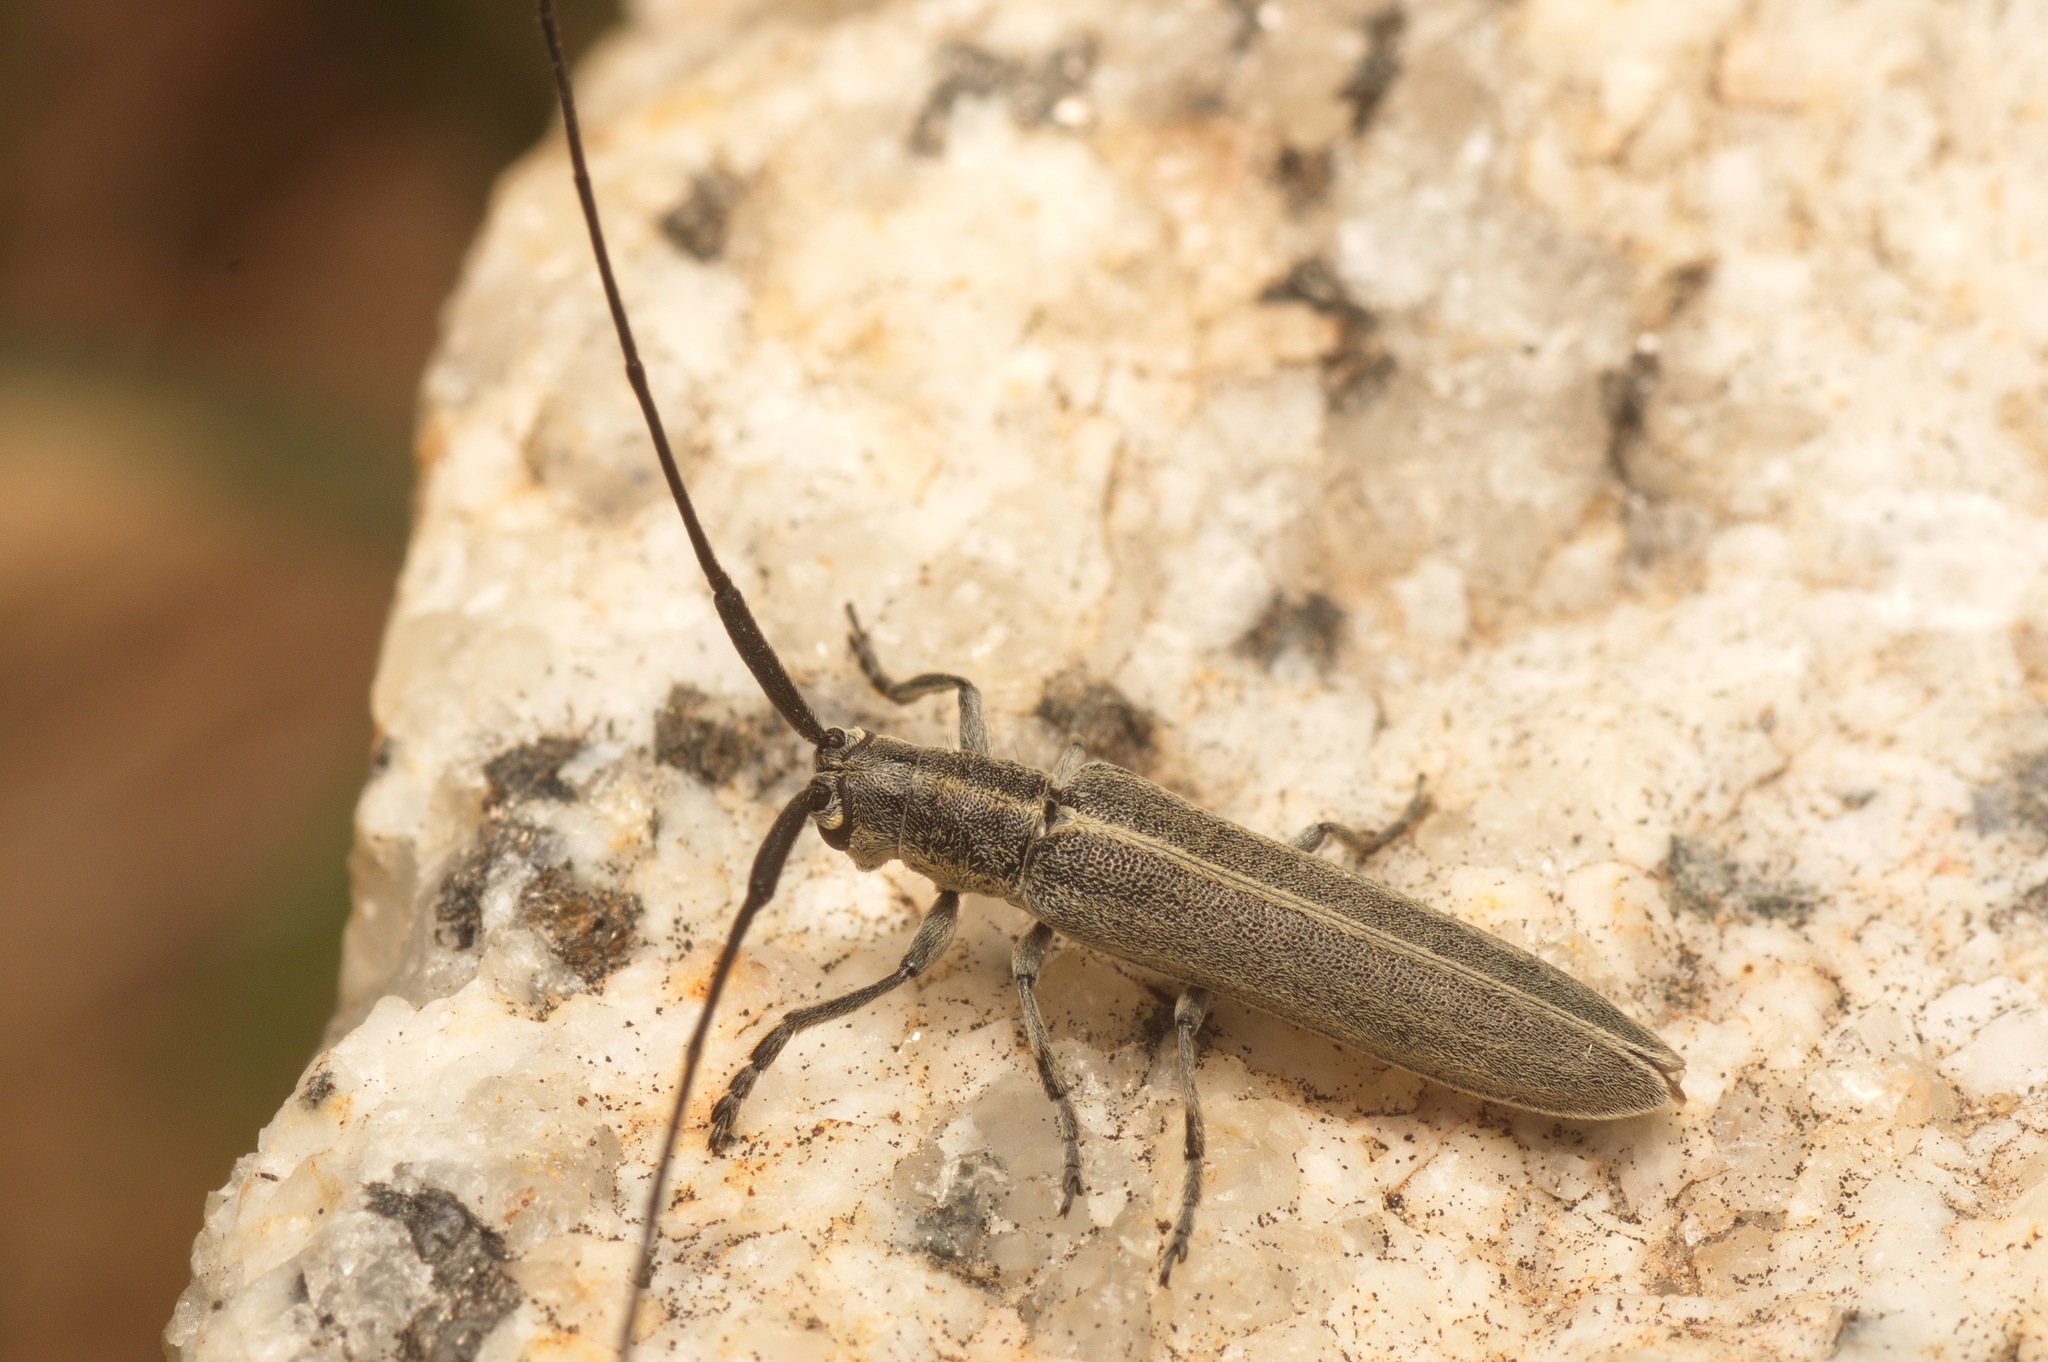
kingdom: Animalia
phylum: Arthropoda
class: Insecta
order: Coleoptera
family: Cerambycidae
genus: Calamobius
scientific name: Calamobius filum
